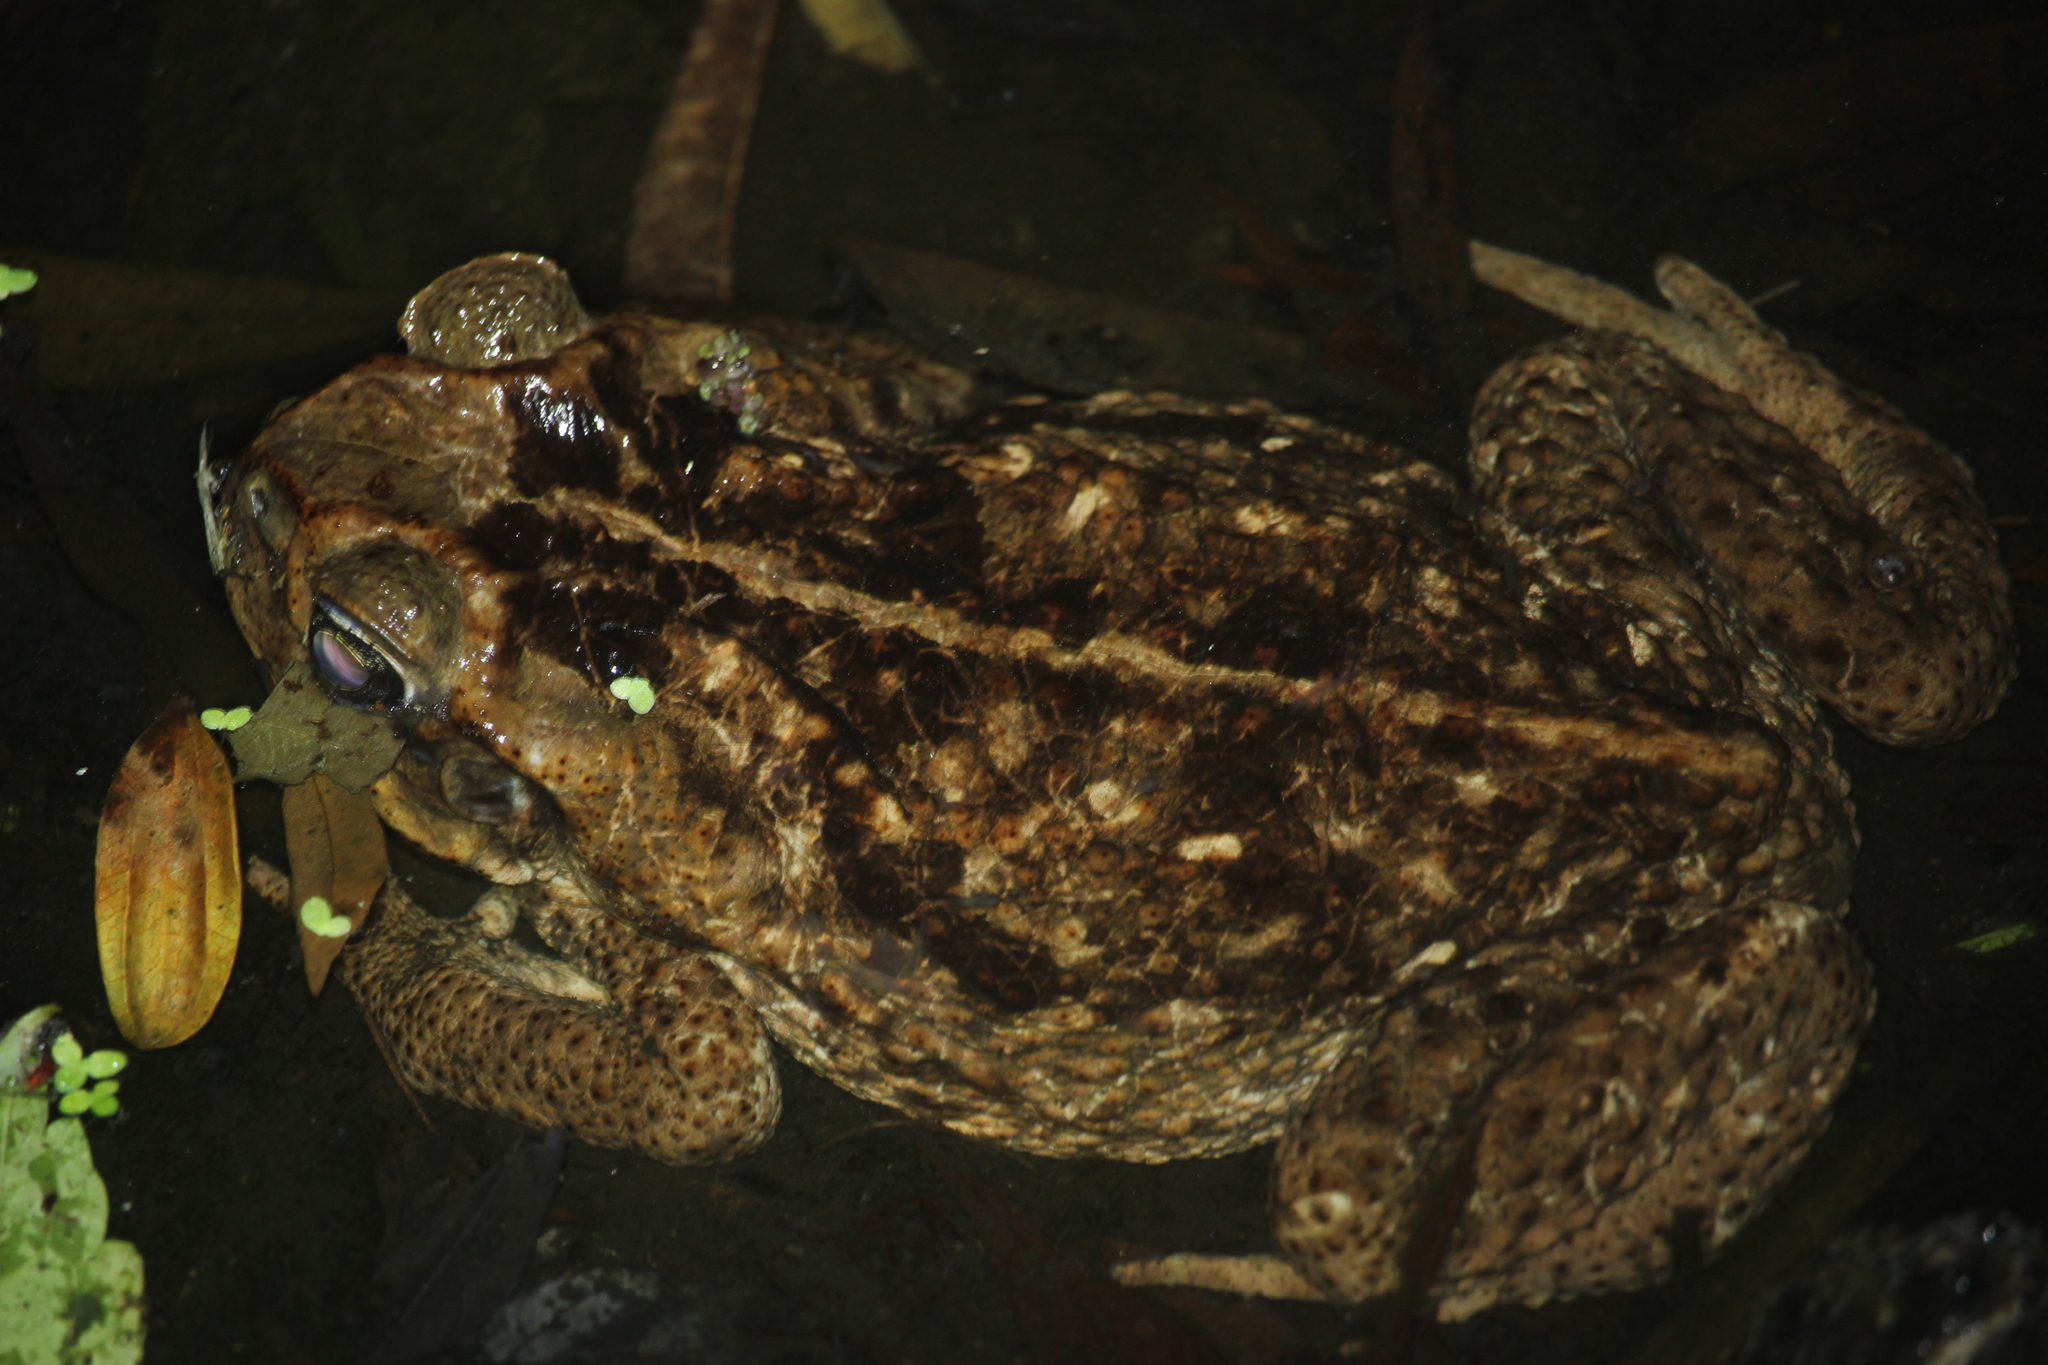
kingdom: Animalia
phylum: Chordata
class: Amphibia
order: Anura
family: Bufonidae
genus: Rhinella
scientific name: Rhinella marina
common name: Cane toad
